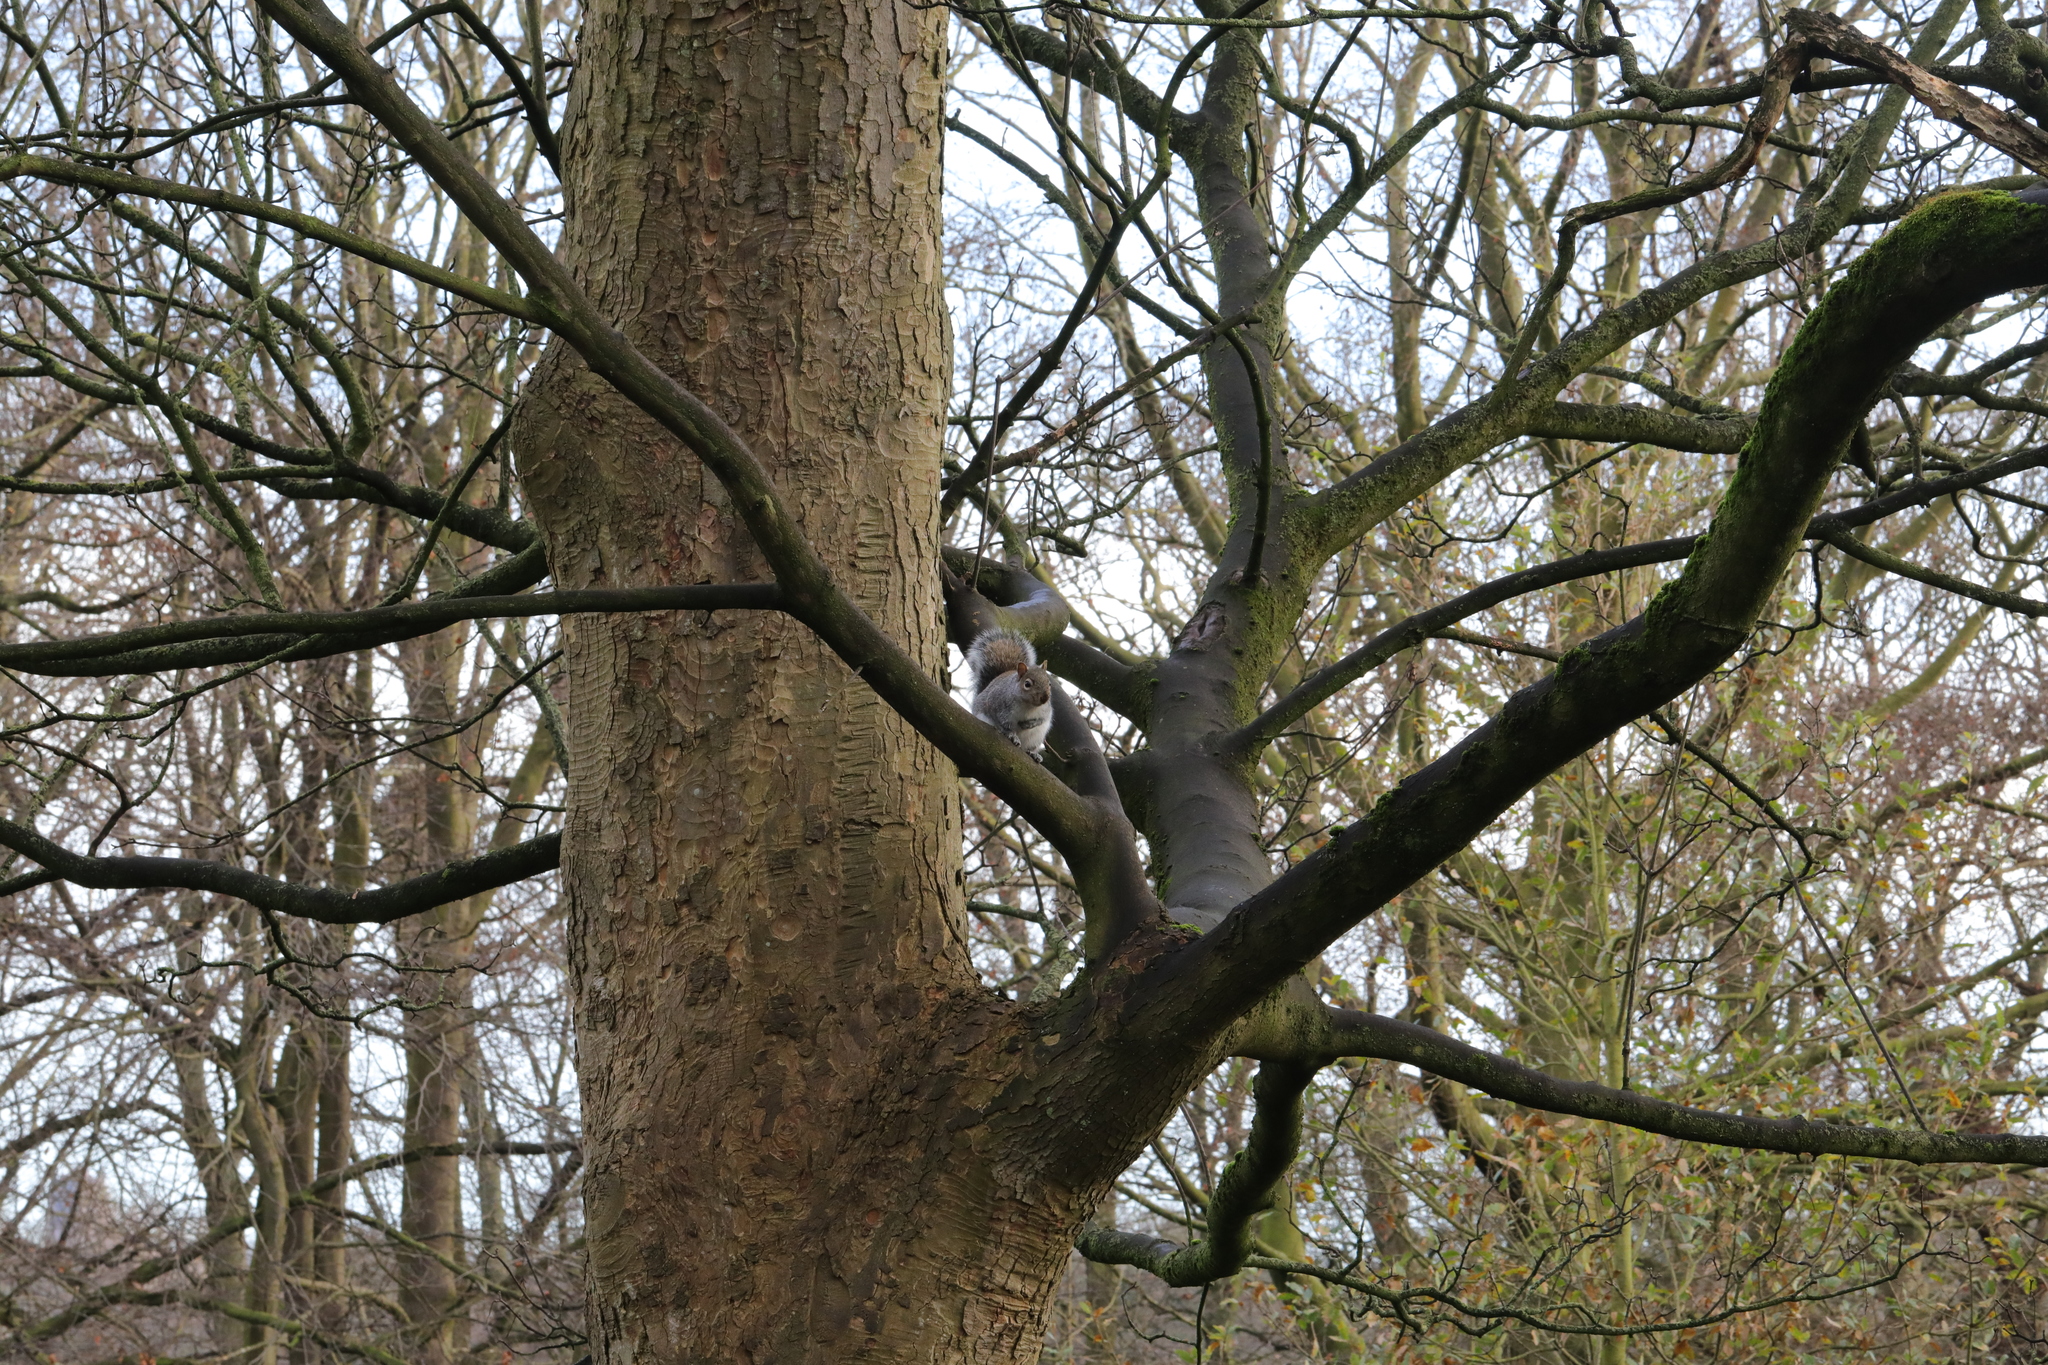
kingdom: Animalia
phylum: Chordata
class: Mammalia
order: Rodentia
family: Sciuridae
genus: Sciurus
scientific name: Sciurus carolinensis
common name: Eastern gray squirrel
